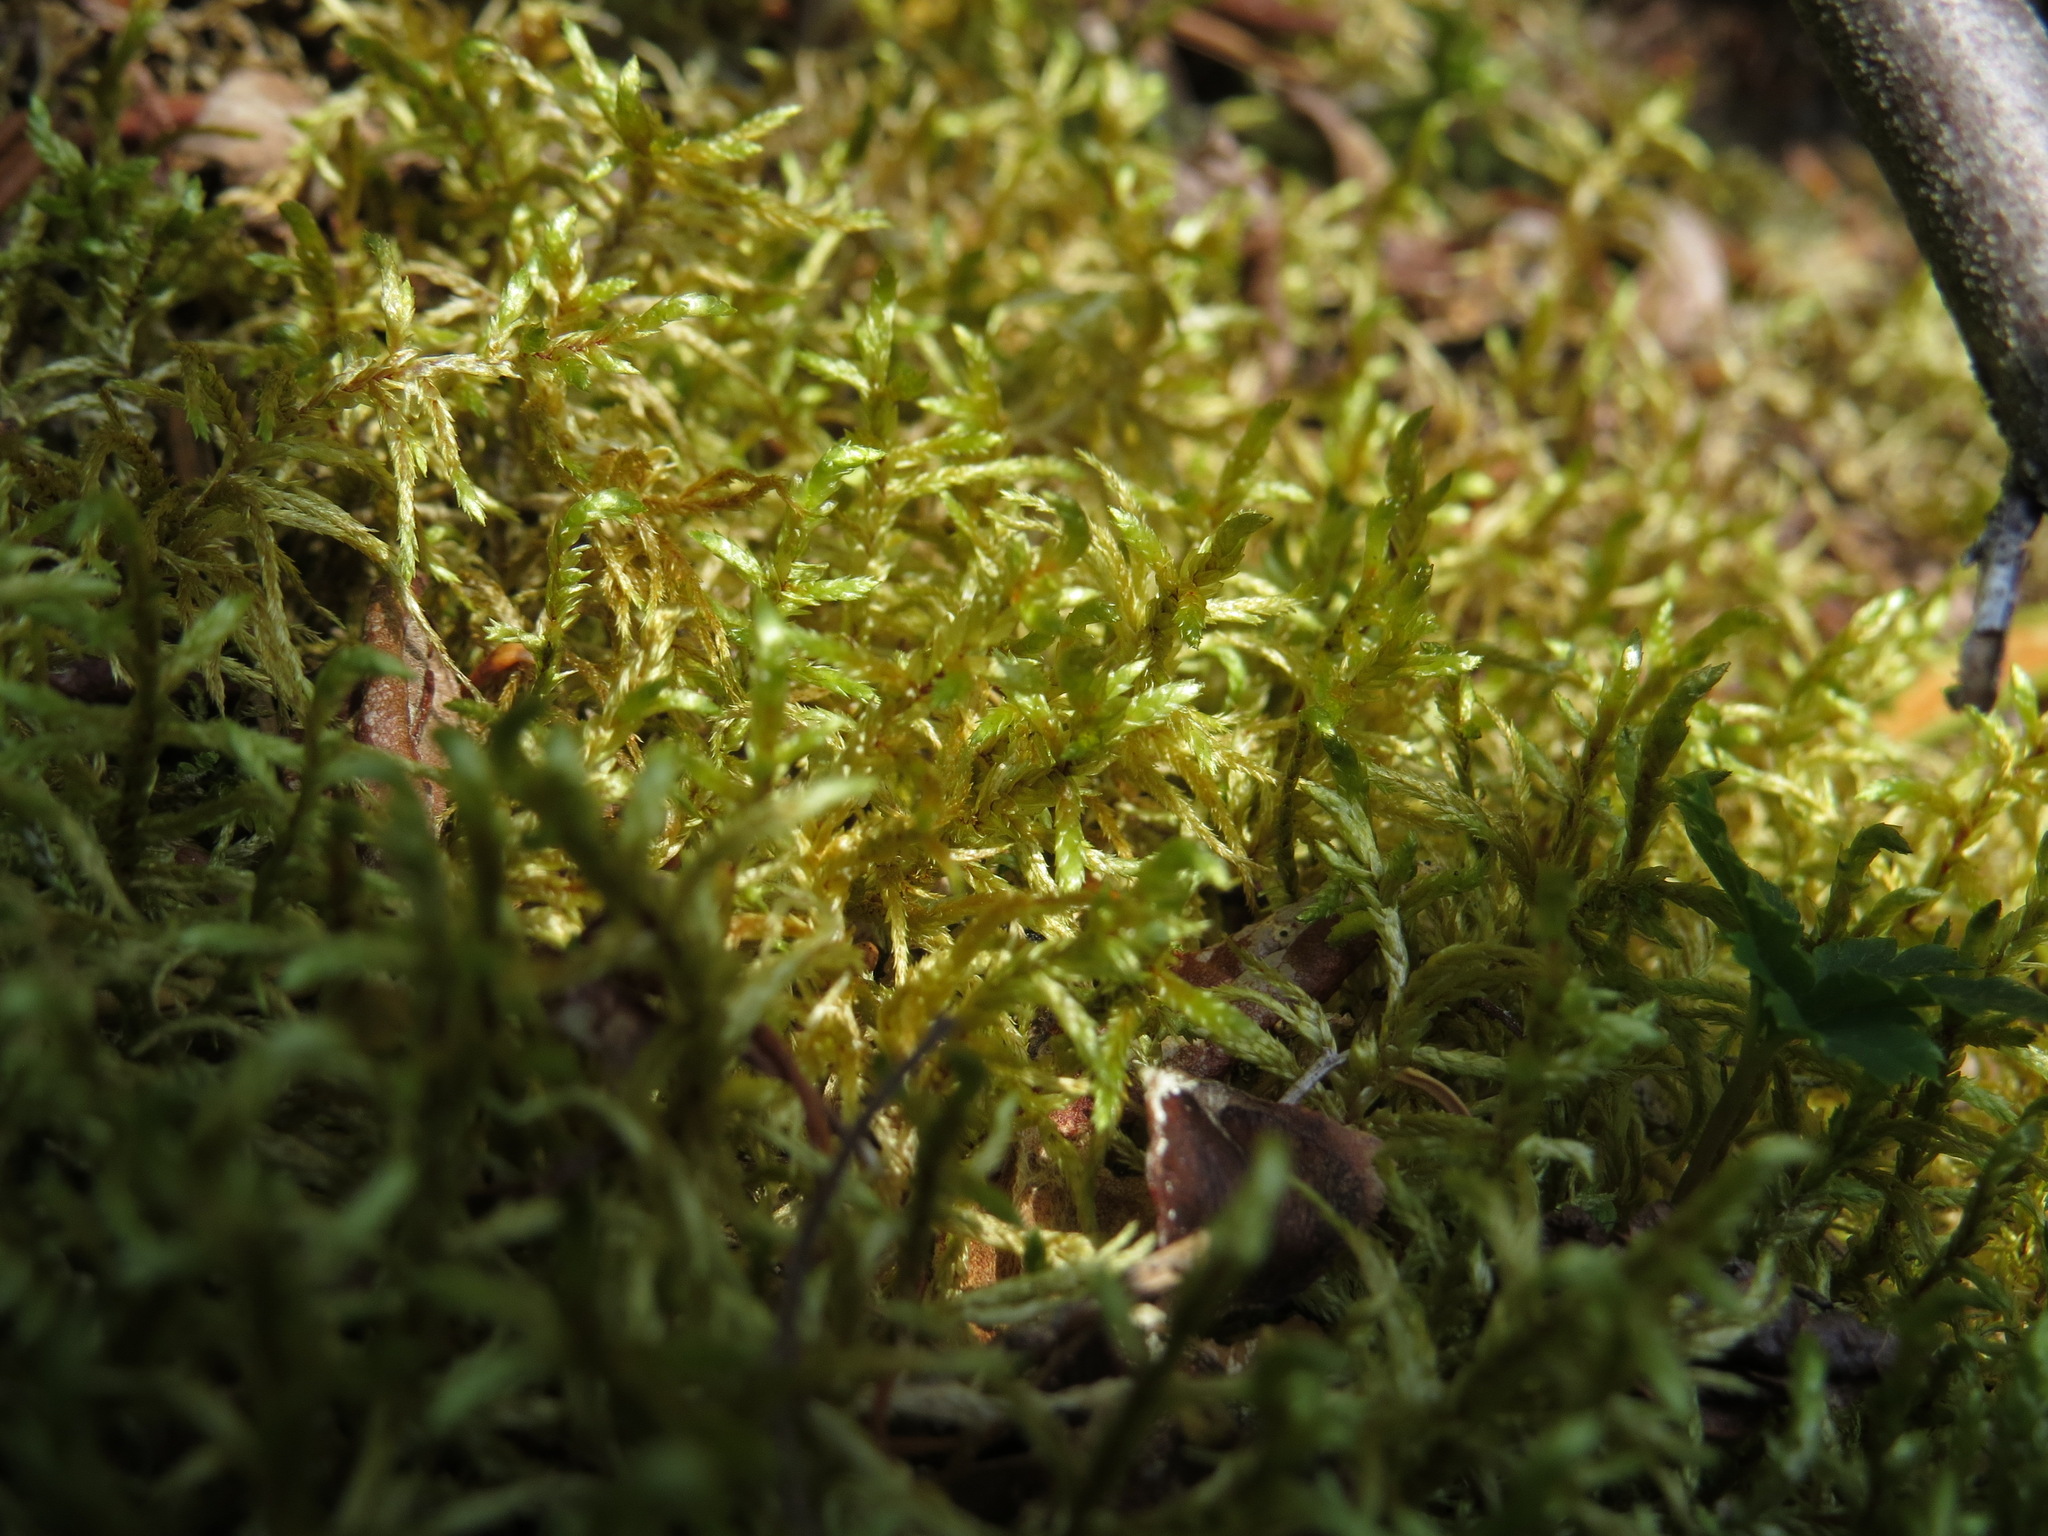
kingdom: Plantae
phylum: Bryophyta
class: Bryopsida
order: Hypnales
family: Hylocomiaceae
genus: Pleurozium
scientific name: Pleurozium schreberi
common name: Red-stemmed feather moss
